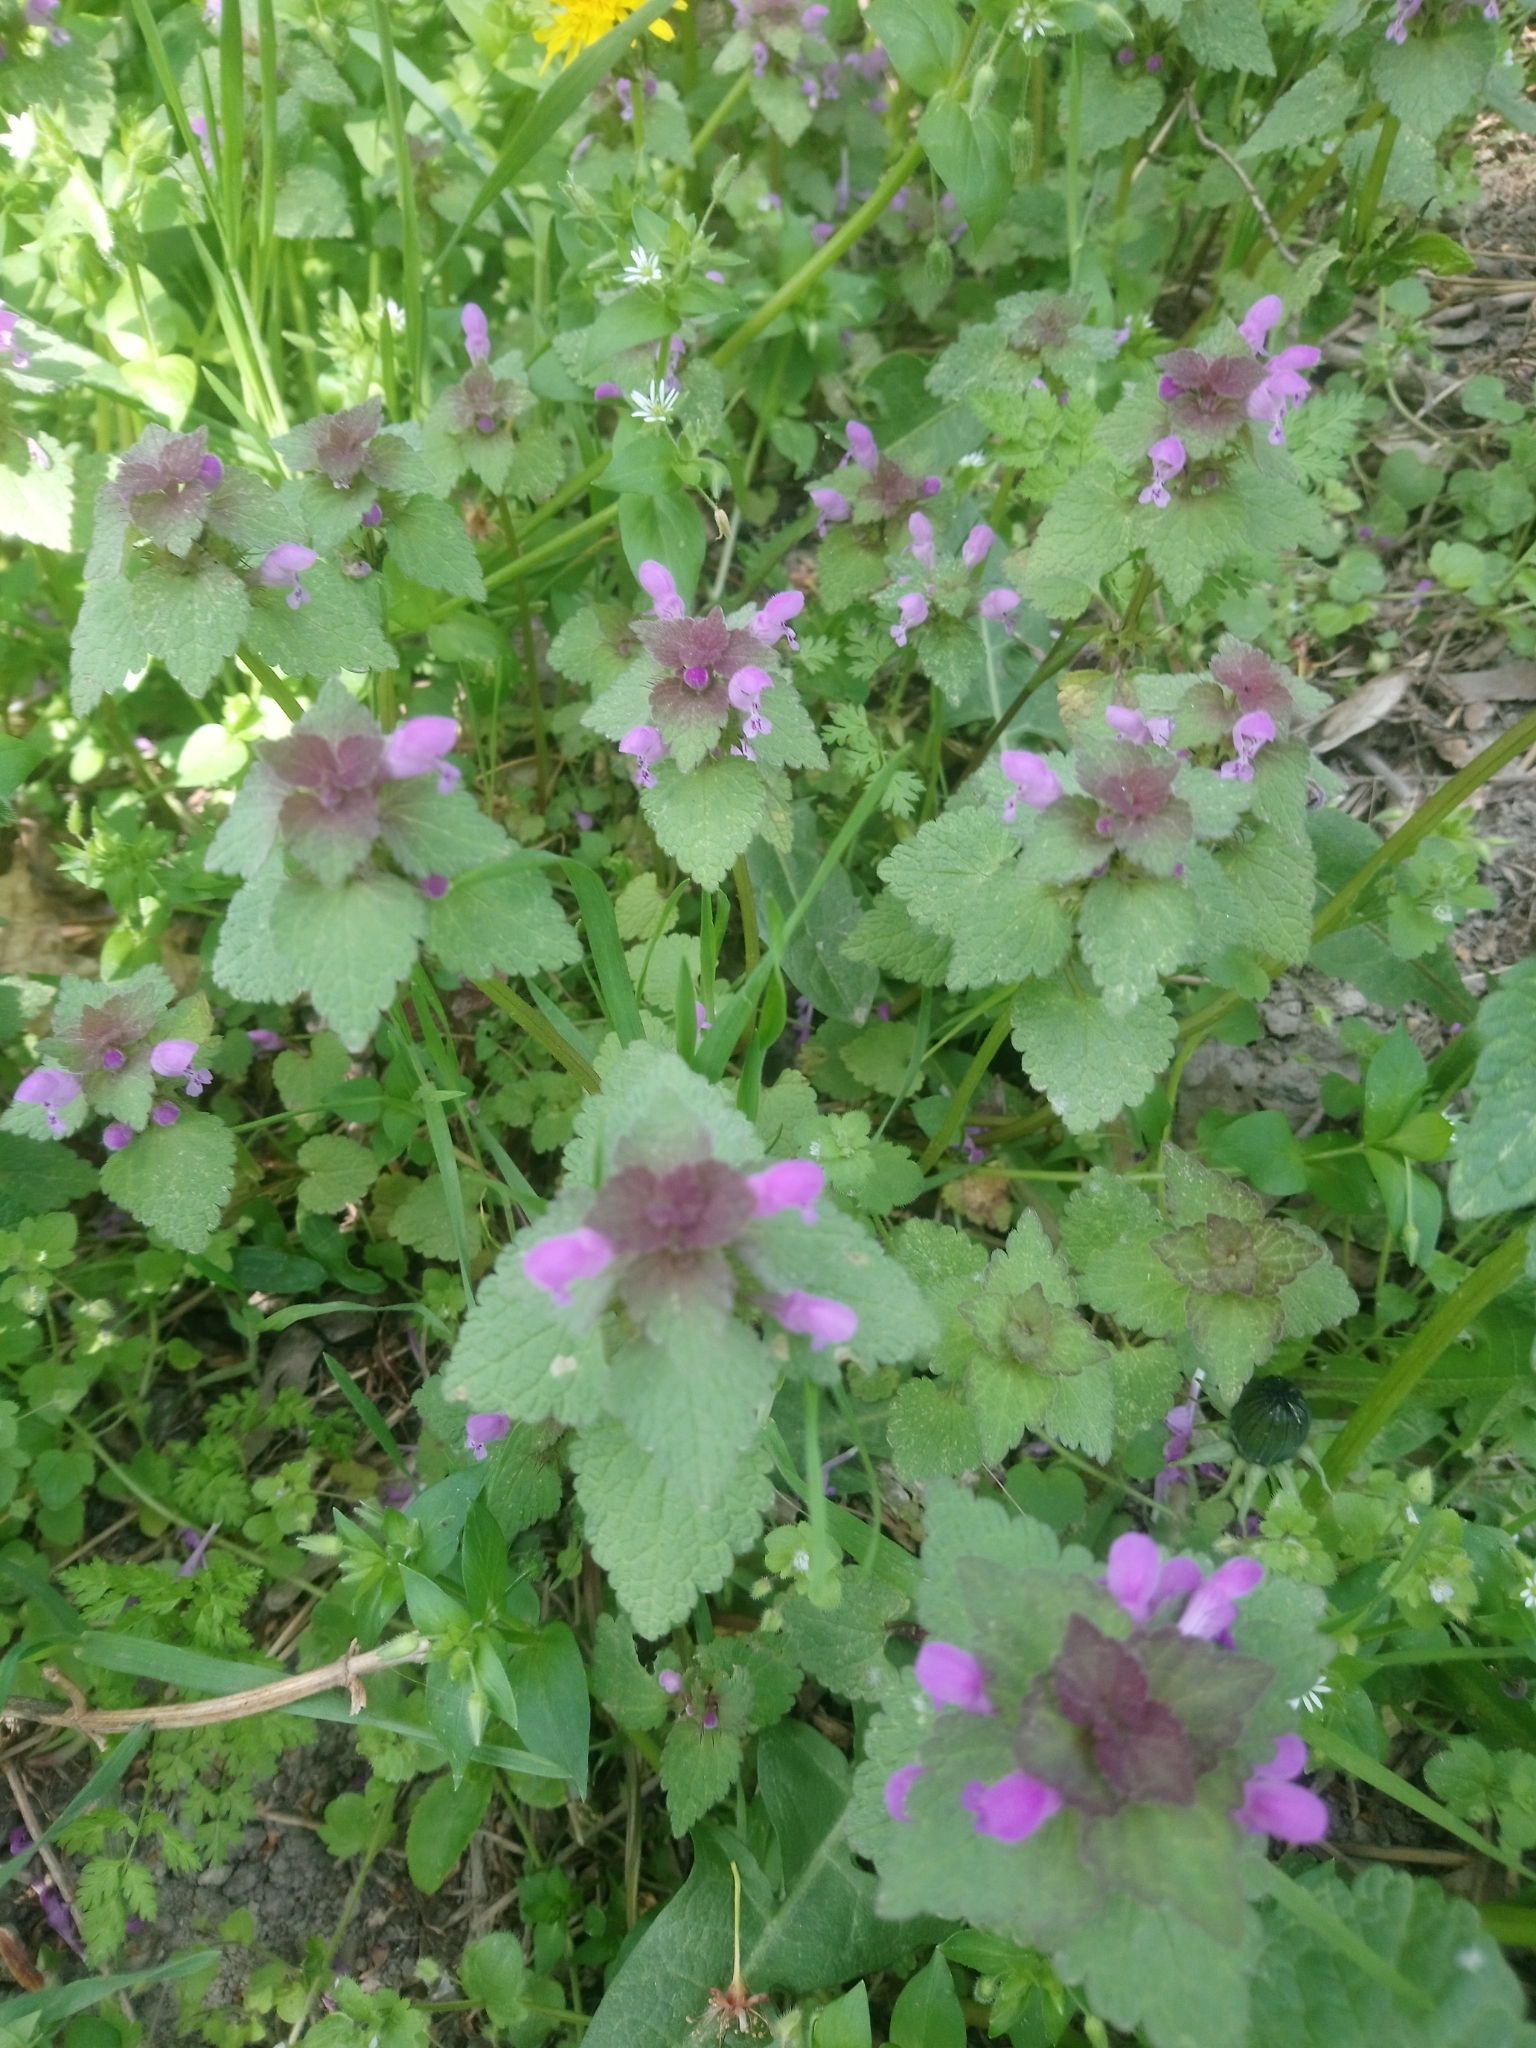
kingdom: Plantae
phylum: Tracheophyta
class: Magnoliopsida
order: Lamiales
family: Lamiaceae
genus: Lamium
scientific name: Lamium purpureum
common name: Red dead-nettle
